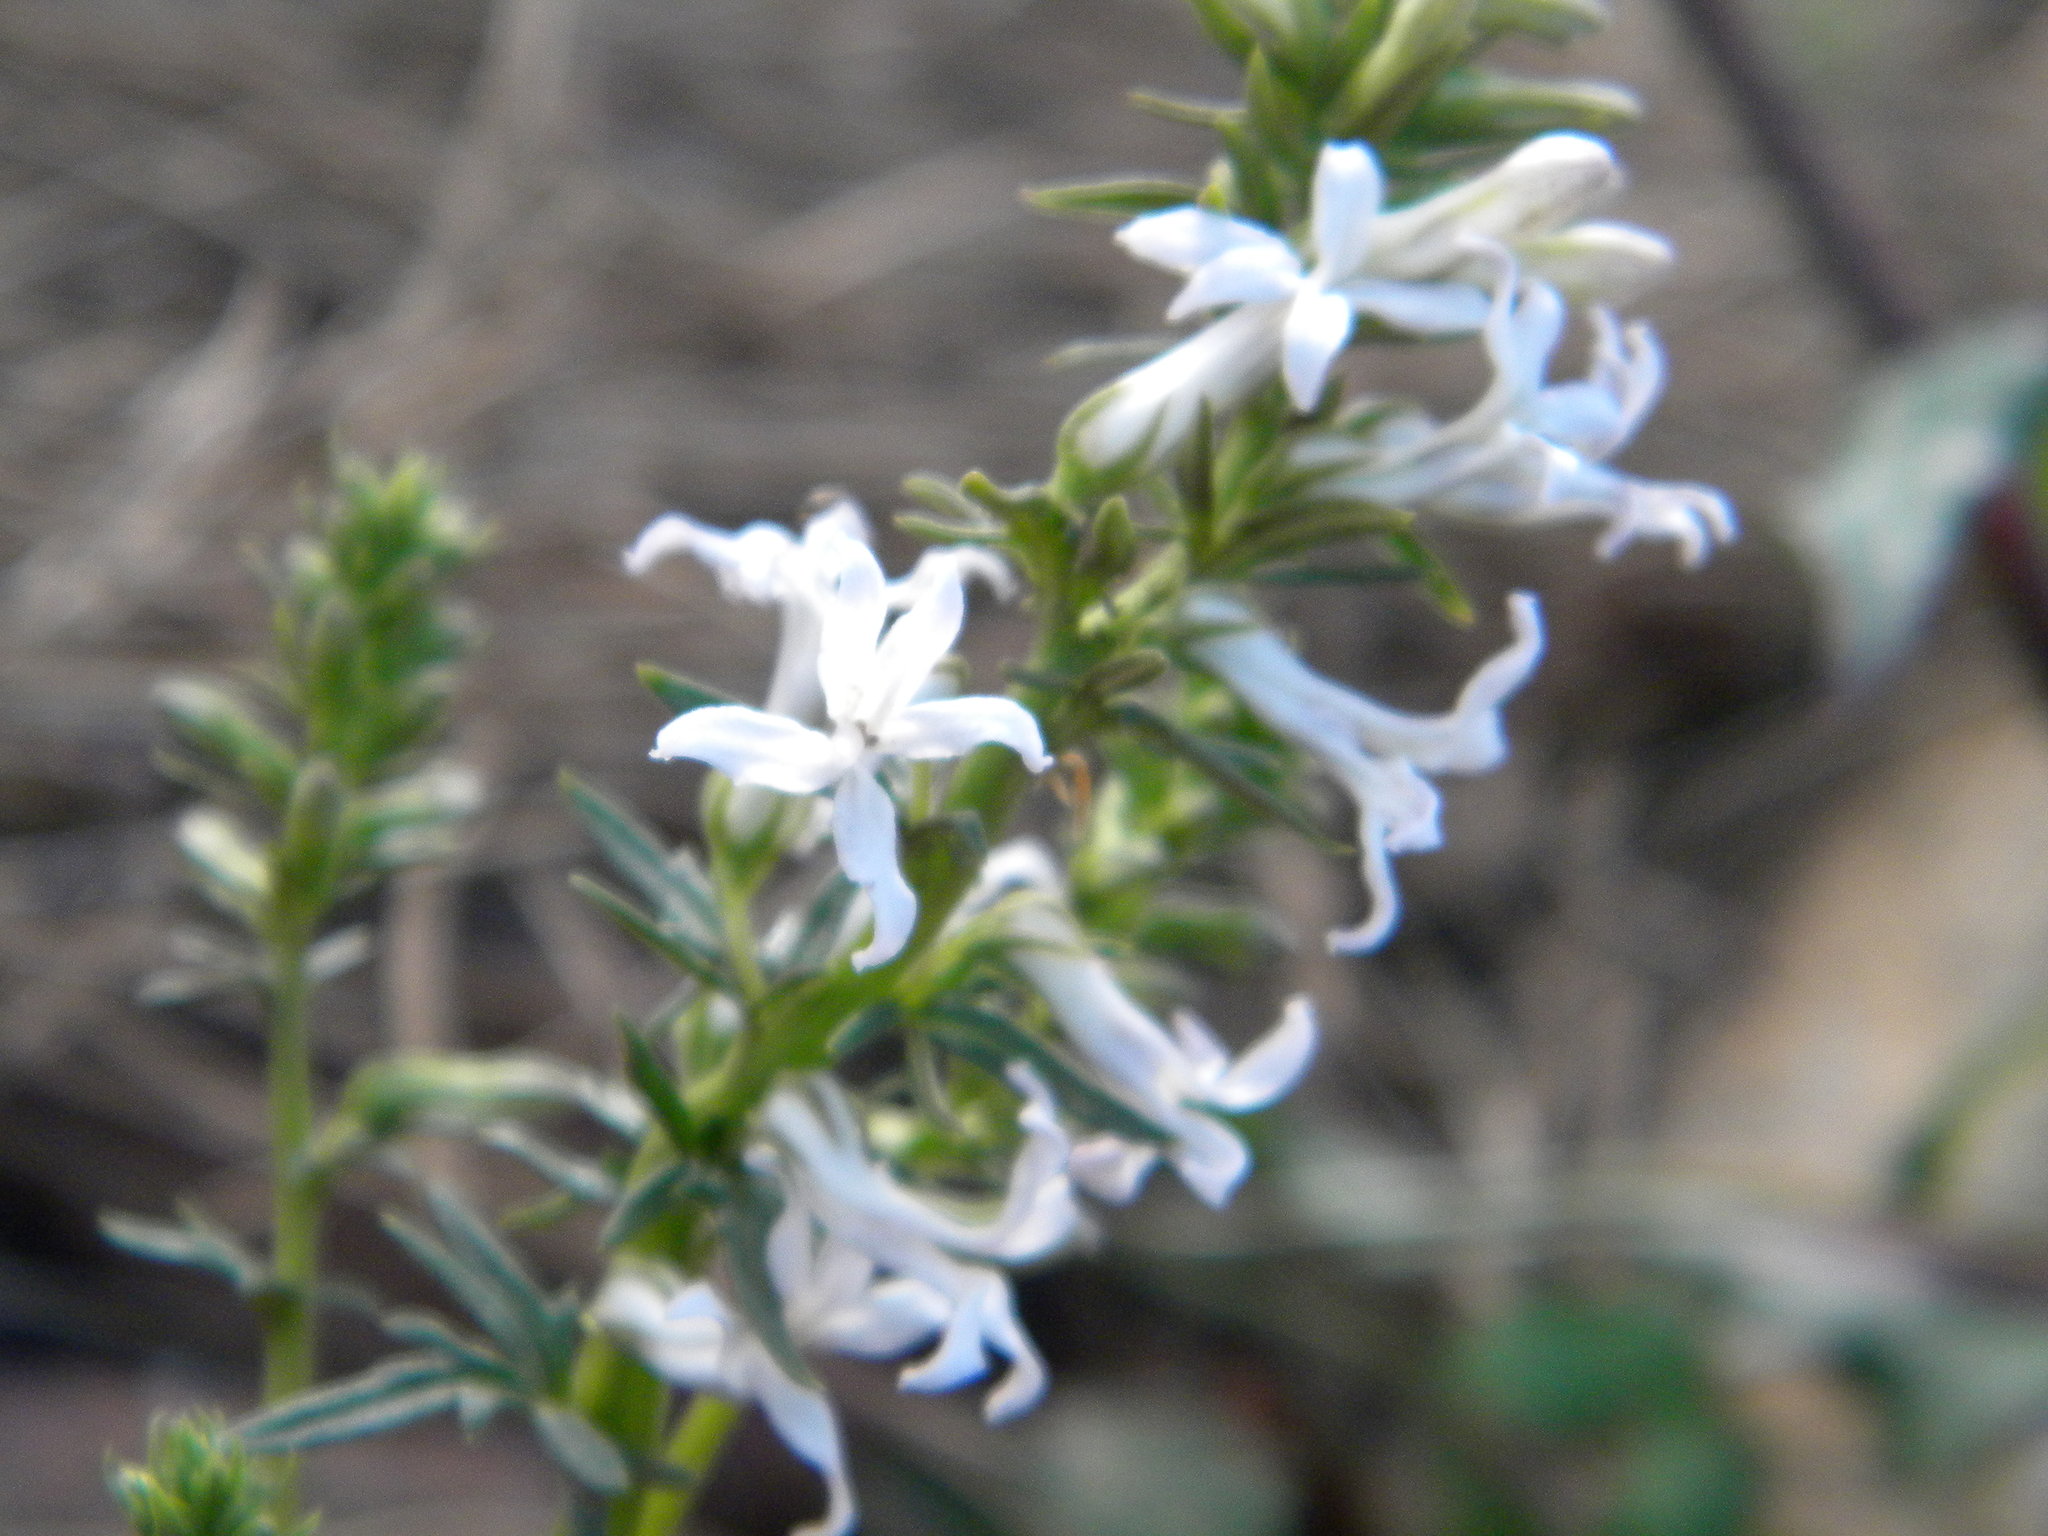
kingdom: Plantae
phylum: Tracheophyta
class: Magnoliopsida
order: Asterales
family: Campanulaceae
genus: Cyphia
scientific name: Cyphia bulbosa
